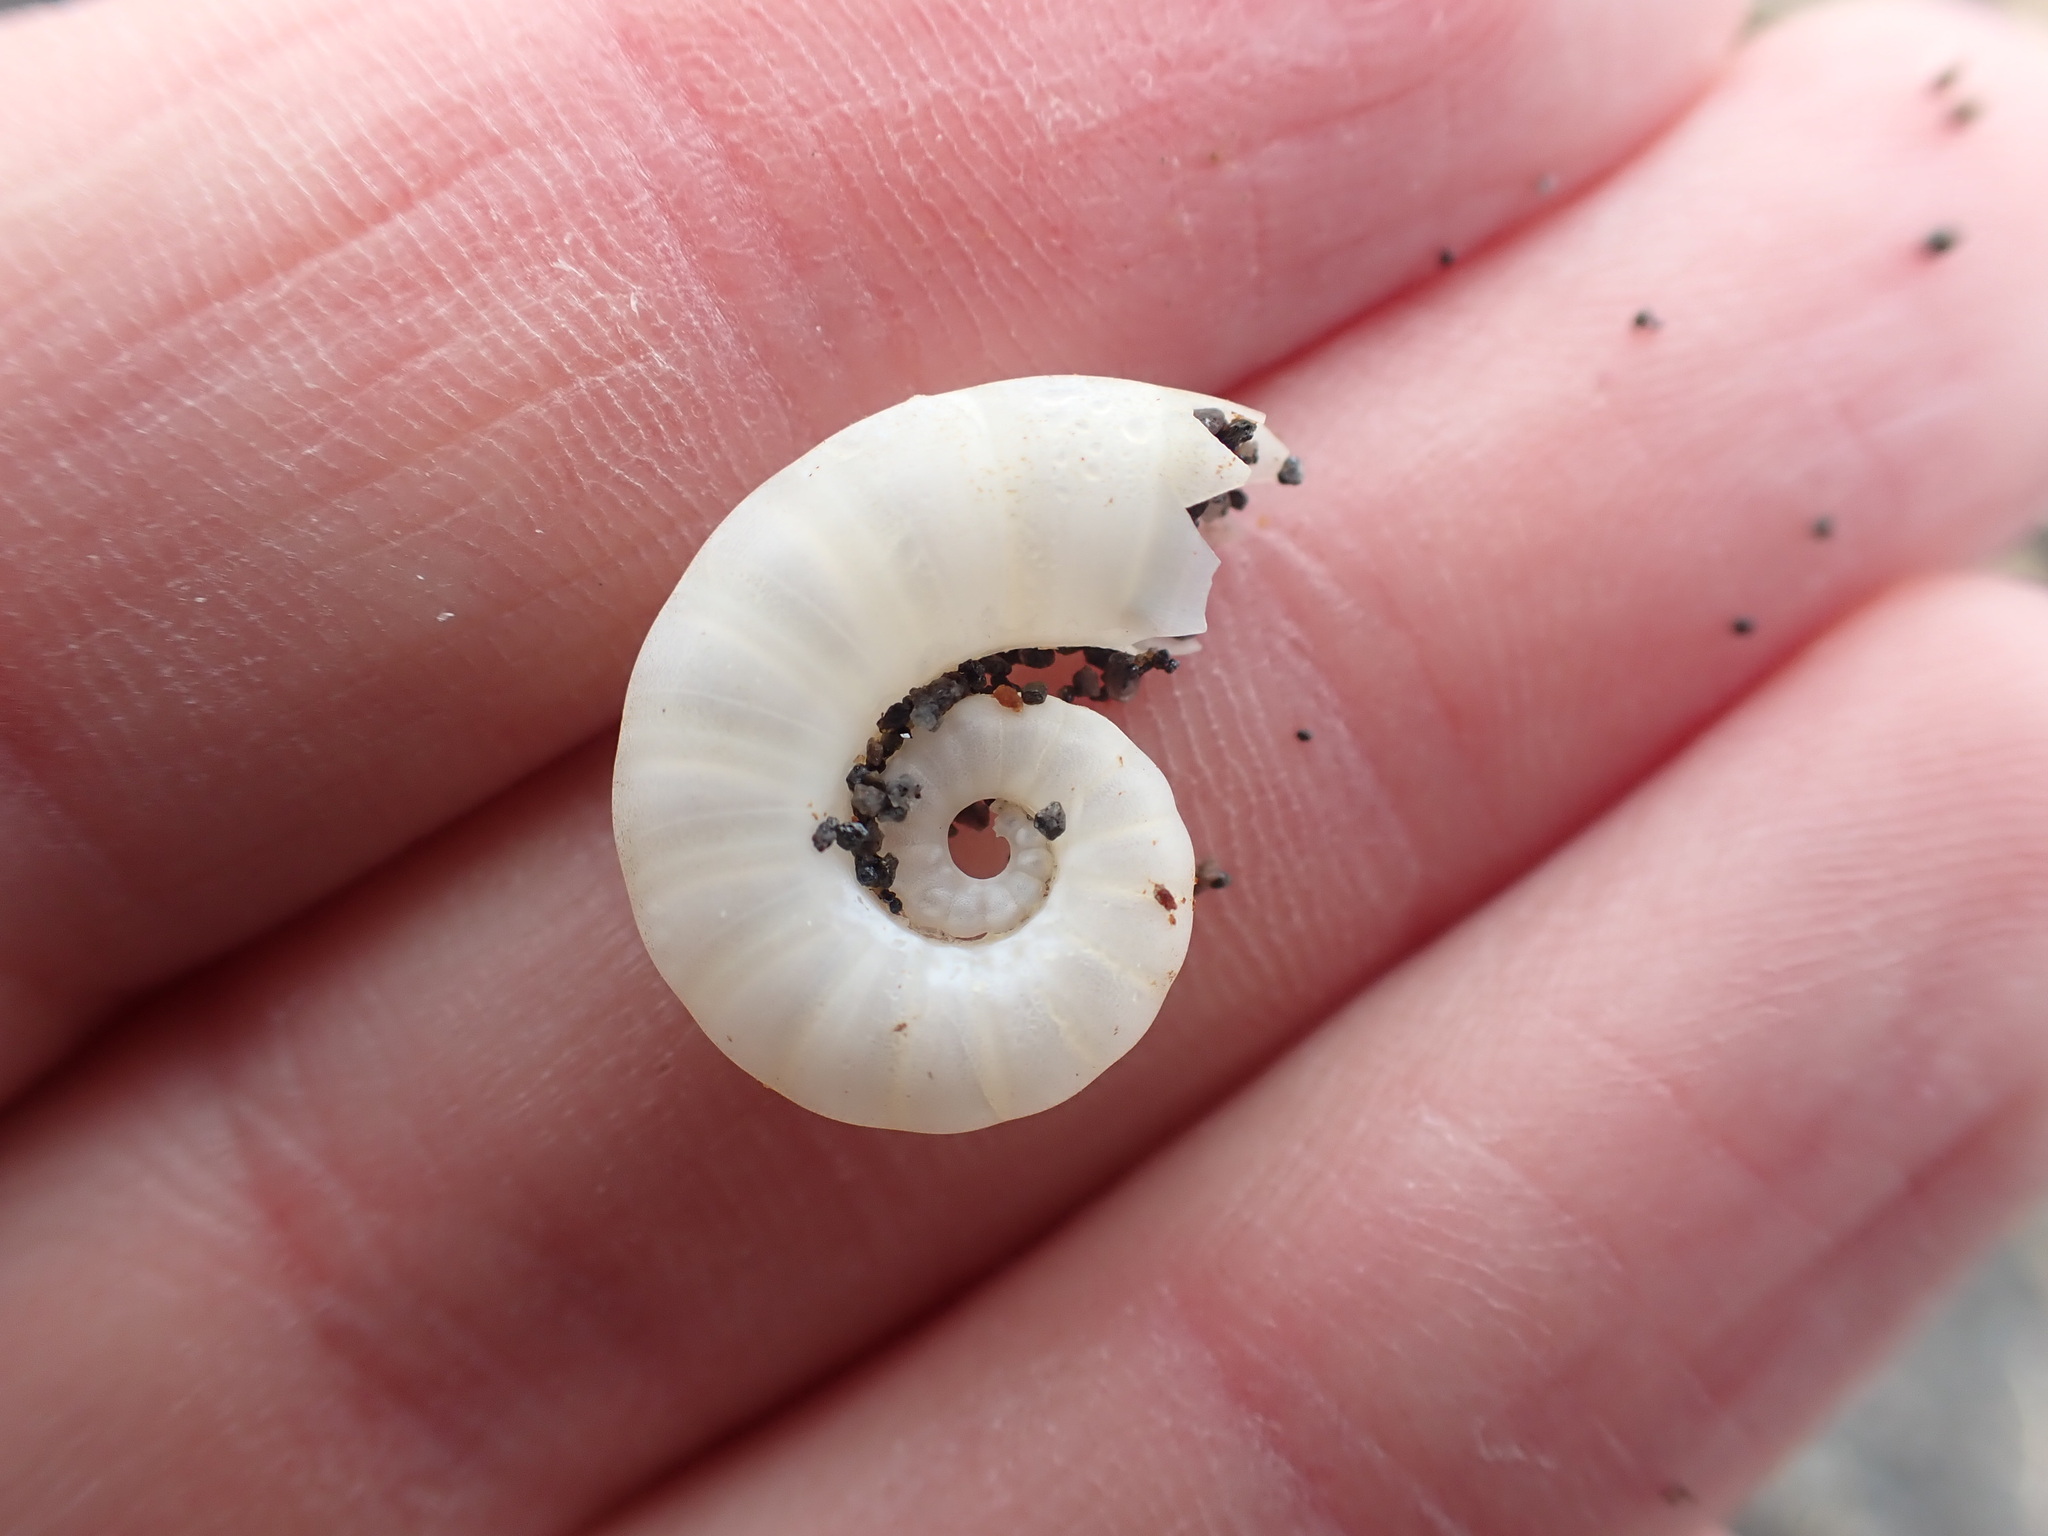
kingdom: Animalia
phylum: Mollusca
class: Cephalopoda
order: Spirulida
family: Spirulidae
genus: Spirula
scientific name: Spirula spirula
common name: Ram's horn squid
